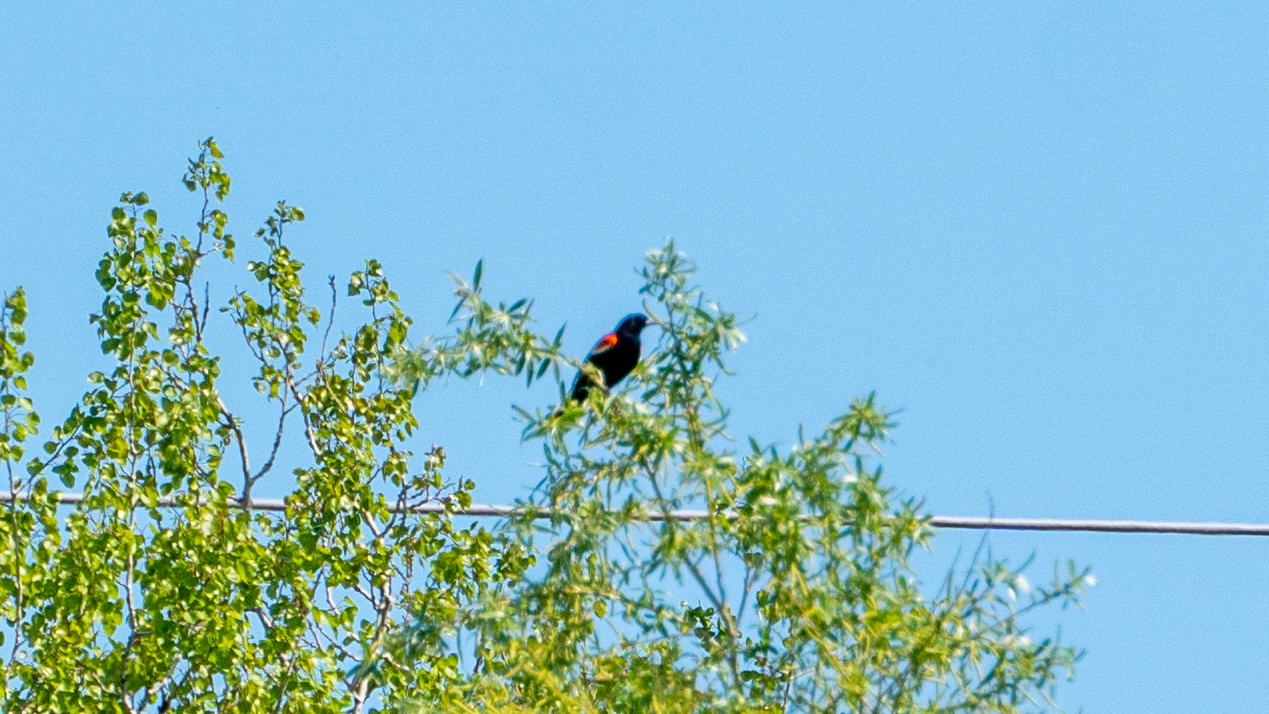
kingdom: Animalia
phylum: Chordata
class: Aves
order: Passeriformes
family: Icteridae
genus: Agelaius
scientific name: Agelaius phoeniceus
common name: Red-winged blackbird
